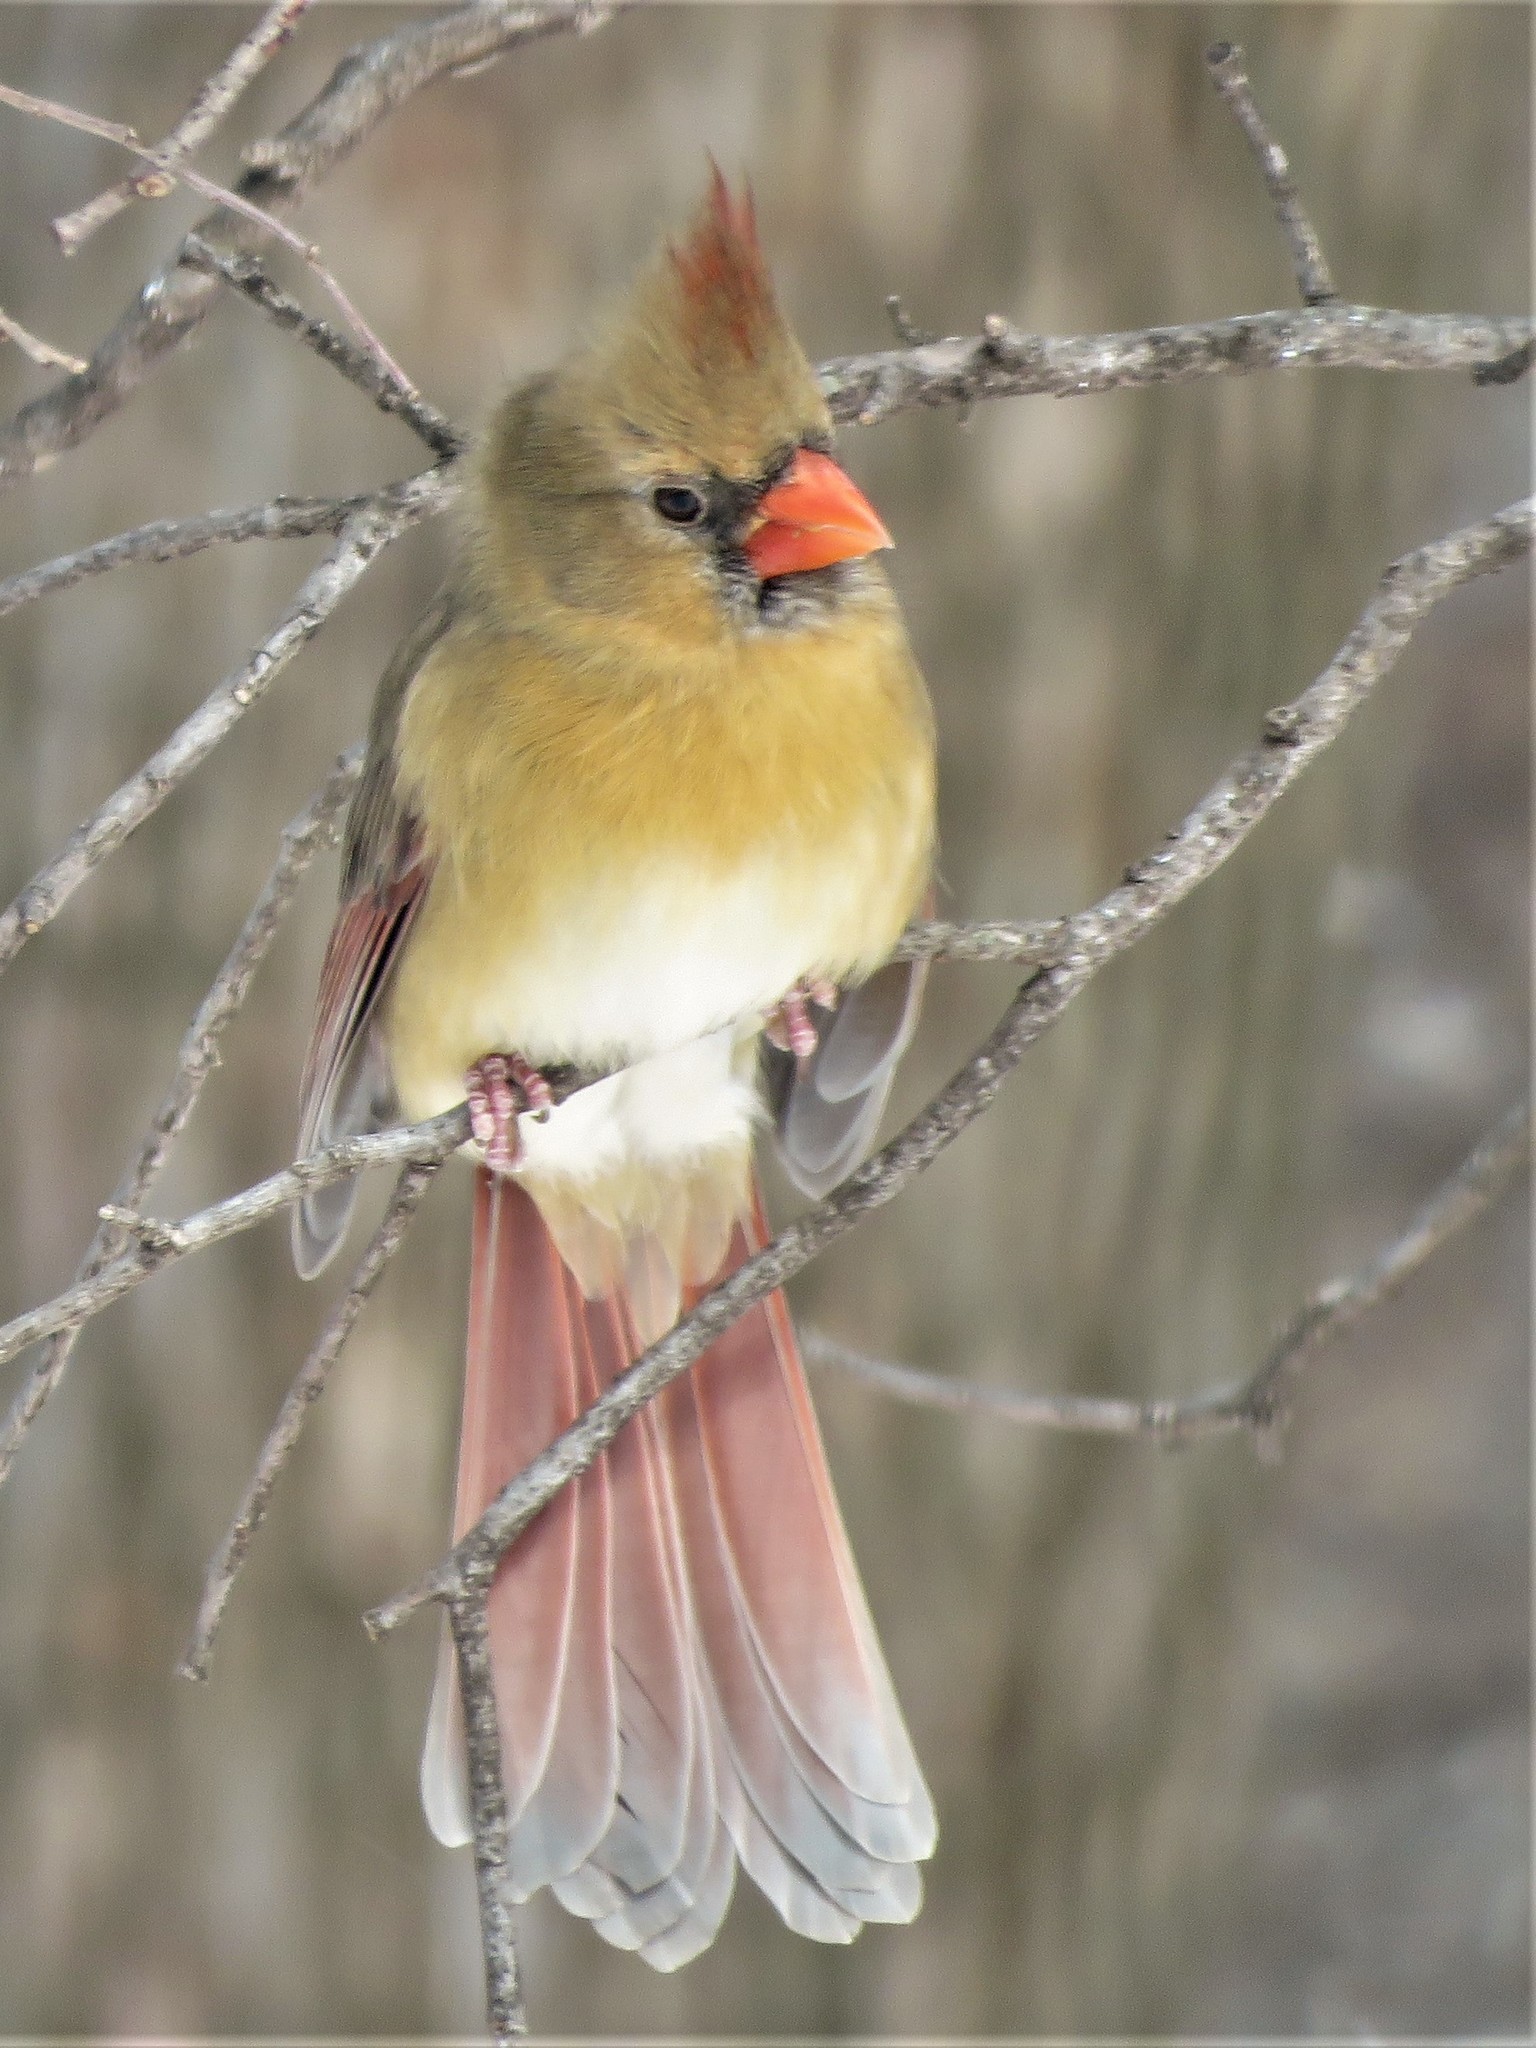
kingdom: Animalia
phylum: Chordata
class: Aves
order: Passeriformes
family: Cardinalidae
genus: Cardinalis
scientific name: Cardinalis cardinalis
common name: Northern cardinal
